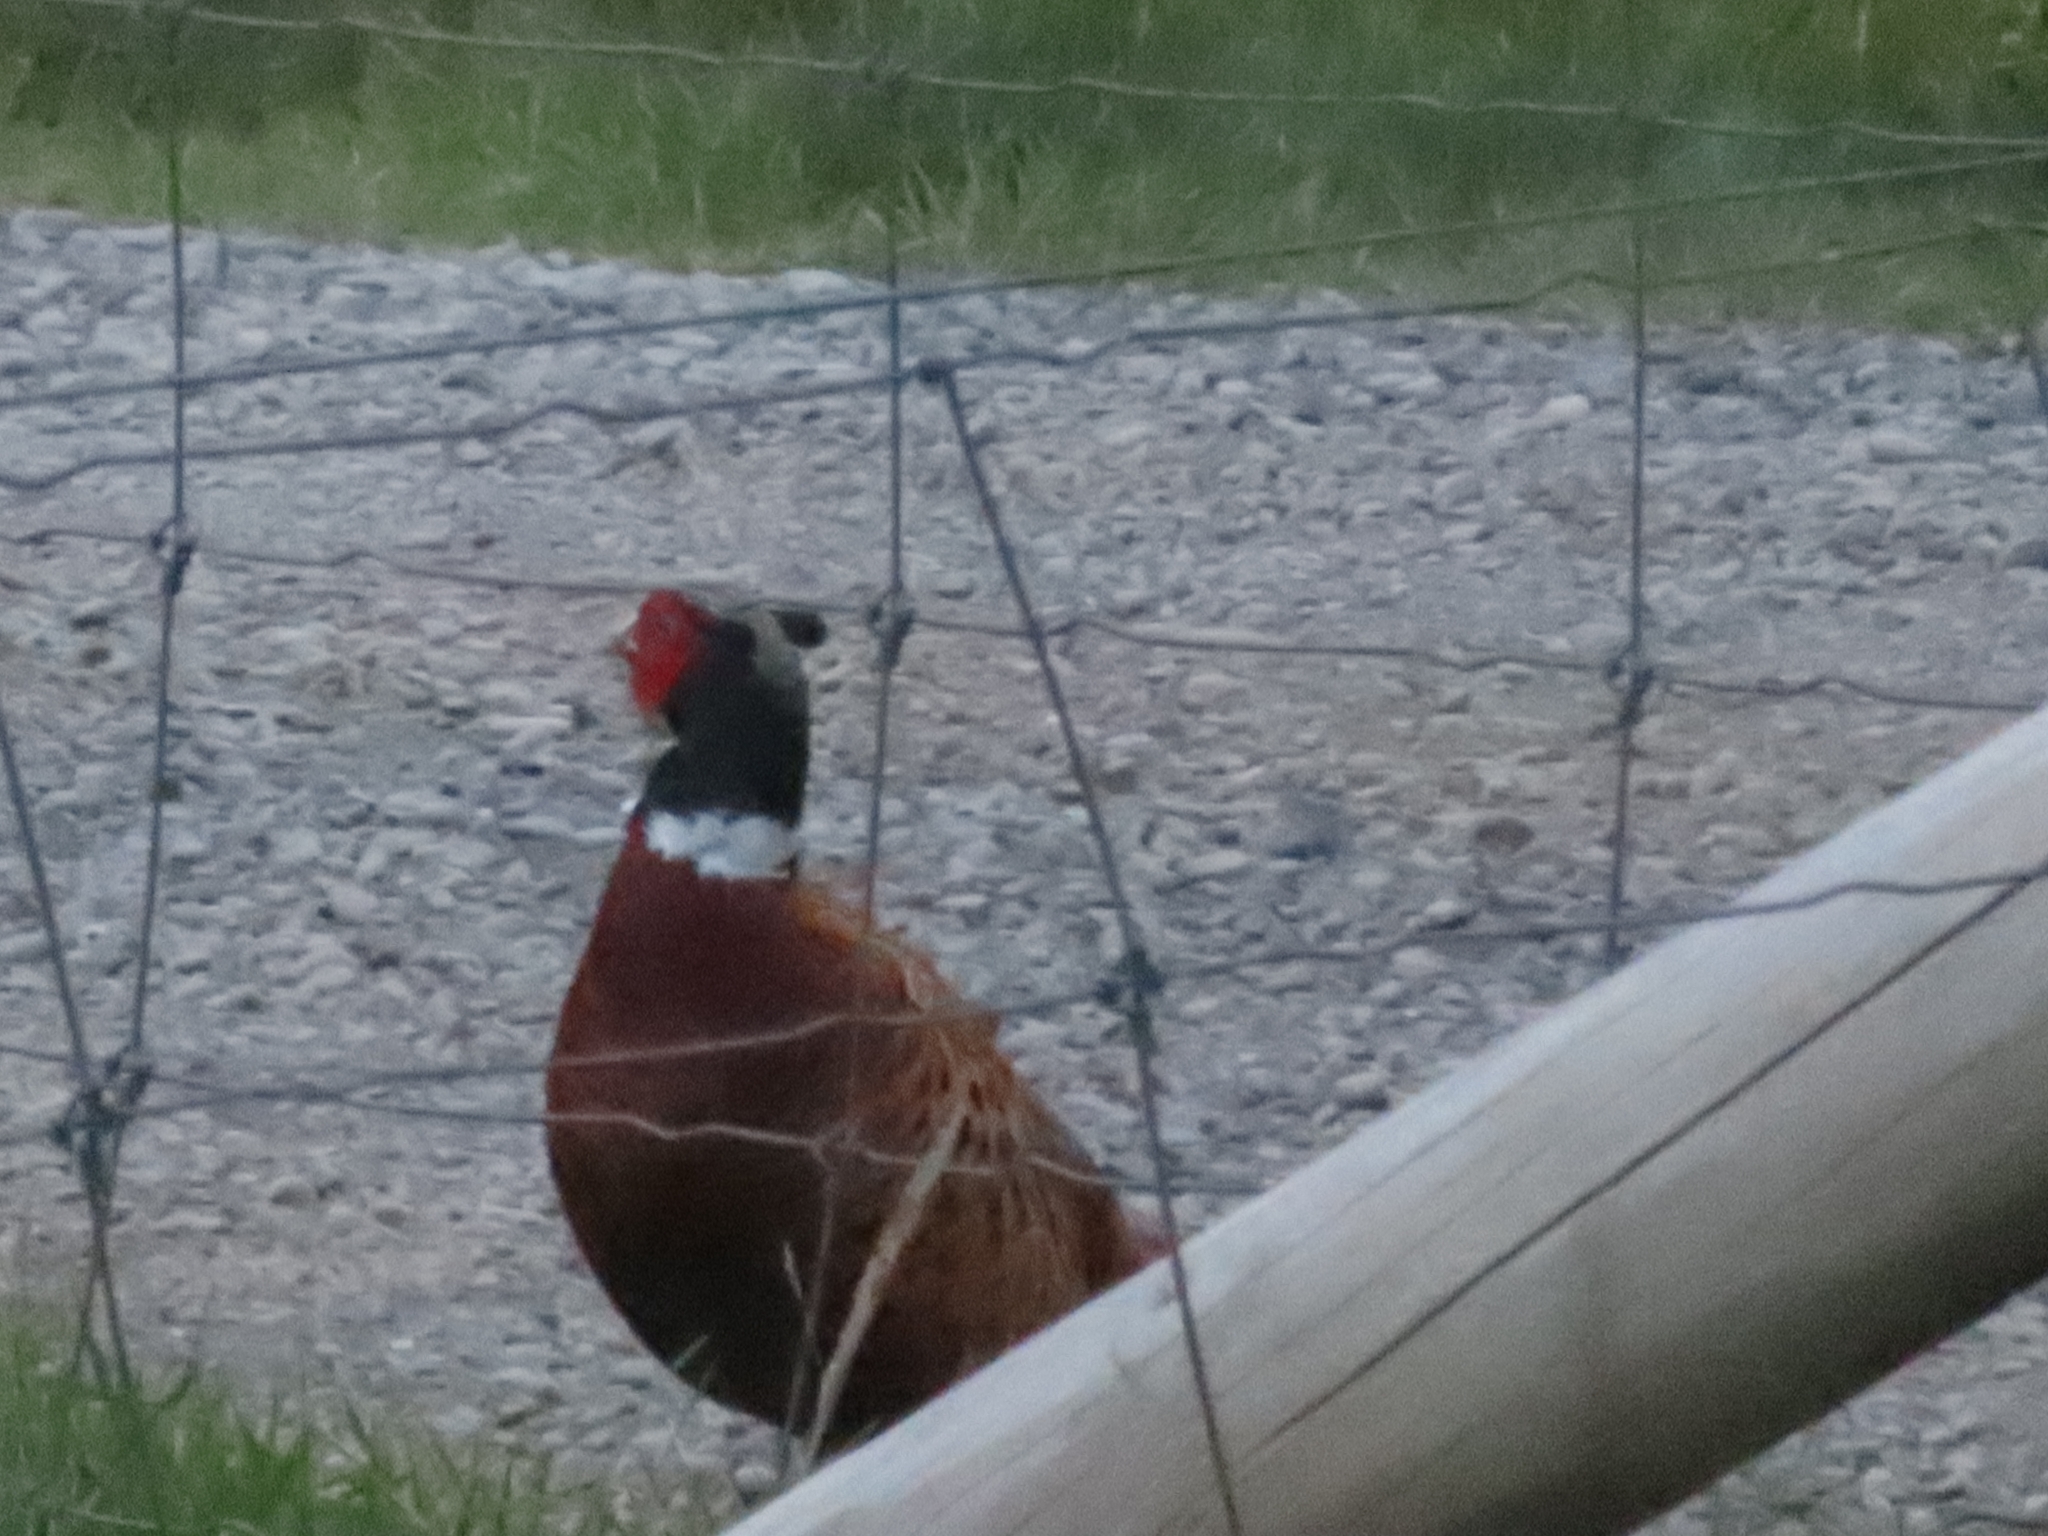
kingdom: Animalia
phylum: Chordata
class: Aves
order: Galliformes
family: Phasianidae
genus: Phasianus
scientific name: Phasianus colchicus
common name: Common pheasant
